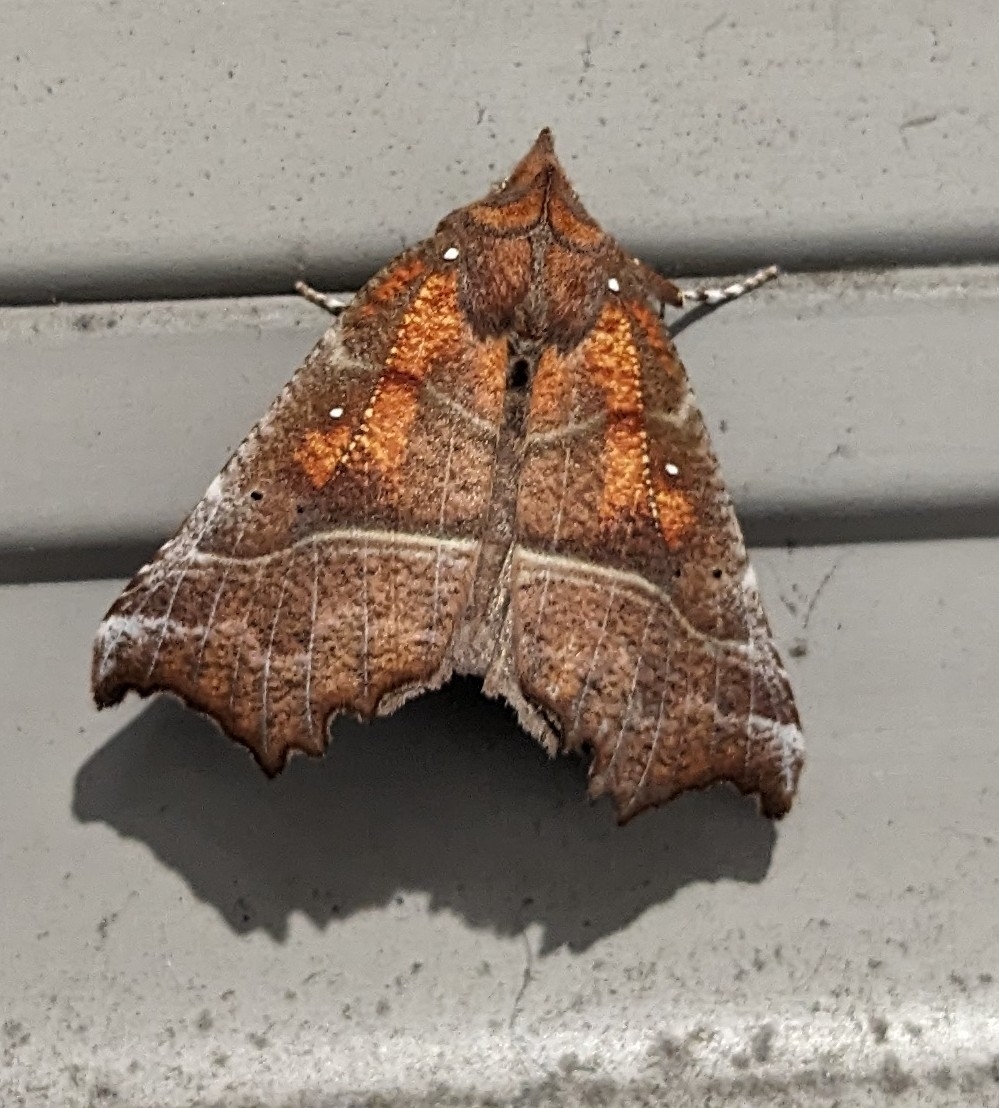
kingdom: Animalia
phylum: Arthropoda
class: Insecta
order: Lepidoptera
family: Erebidae
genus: Scoliopteryx
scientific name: Scoliopteryx libatrix
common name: Herald
